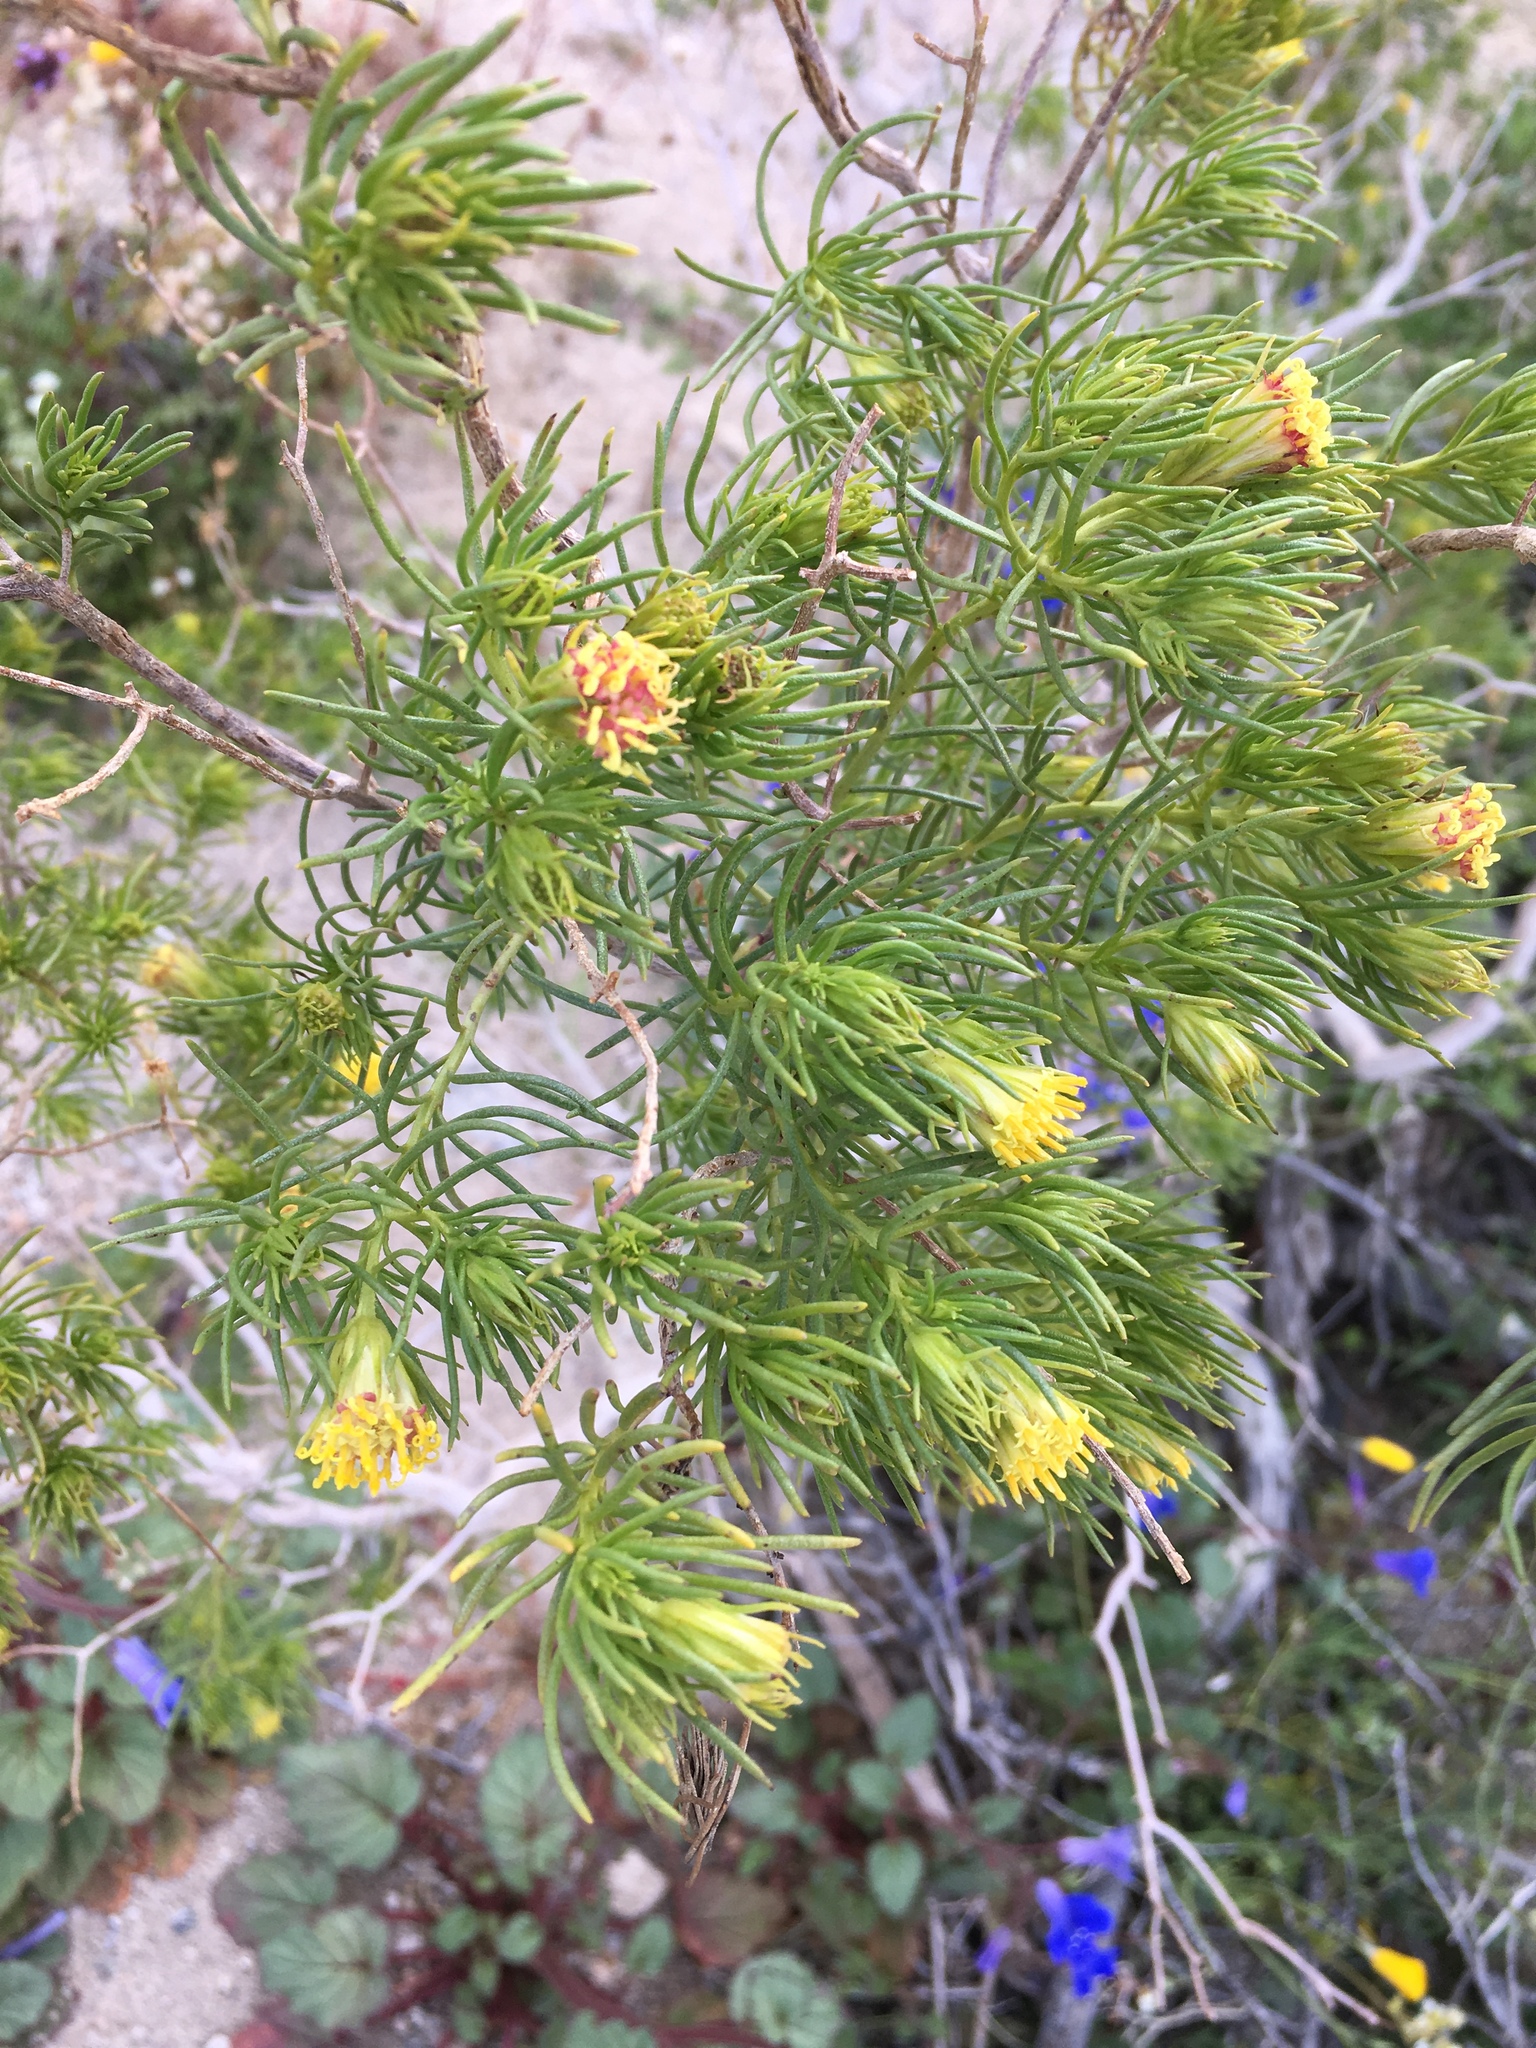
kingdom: Plantae
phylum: Tracheophyta
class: Magnoliopsida
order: Asterales
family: Asteraceae
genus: Peucephyllum
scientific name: Peucephyllum schottii
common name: Pygmy-cedar
